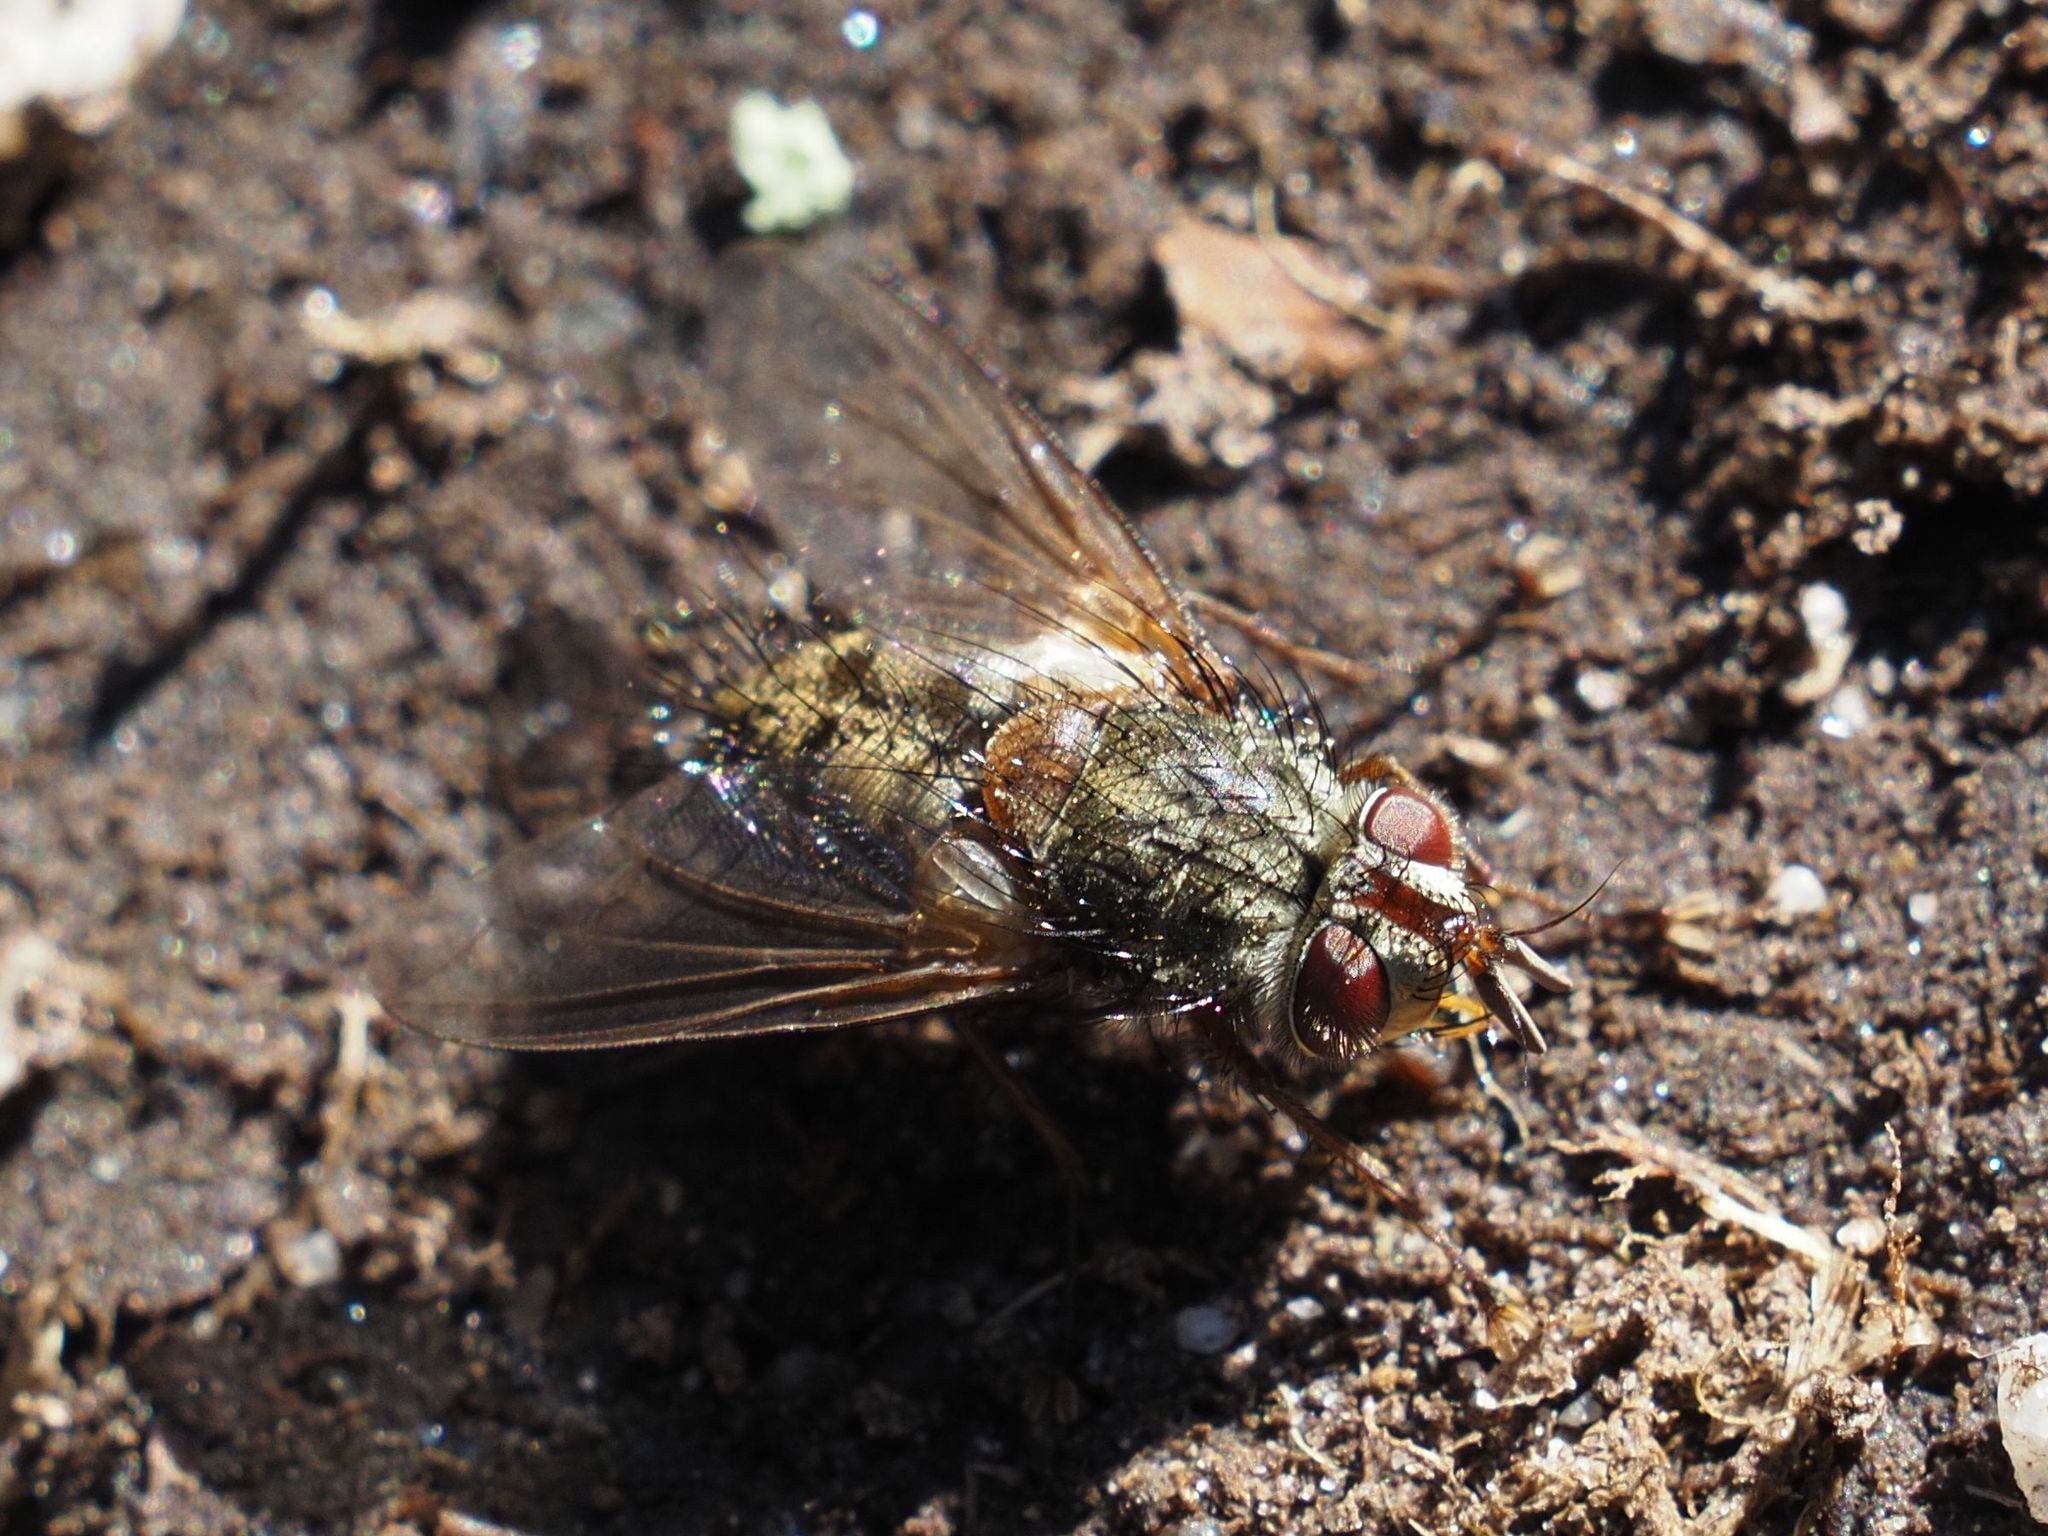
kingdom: Animalia
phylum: Arthropoda
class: Insecta
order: Diptera
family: Tachinidae
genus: Phryno
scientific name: Phryno vetula
